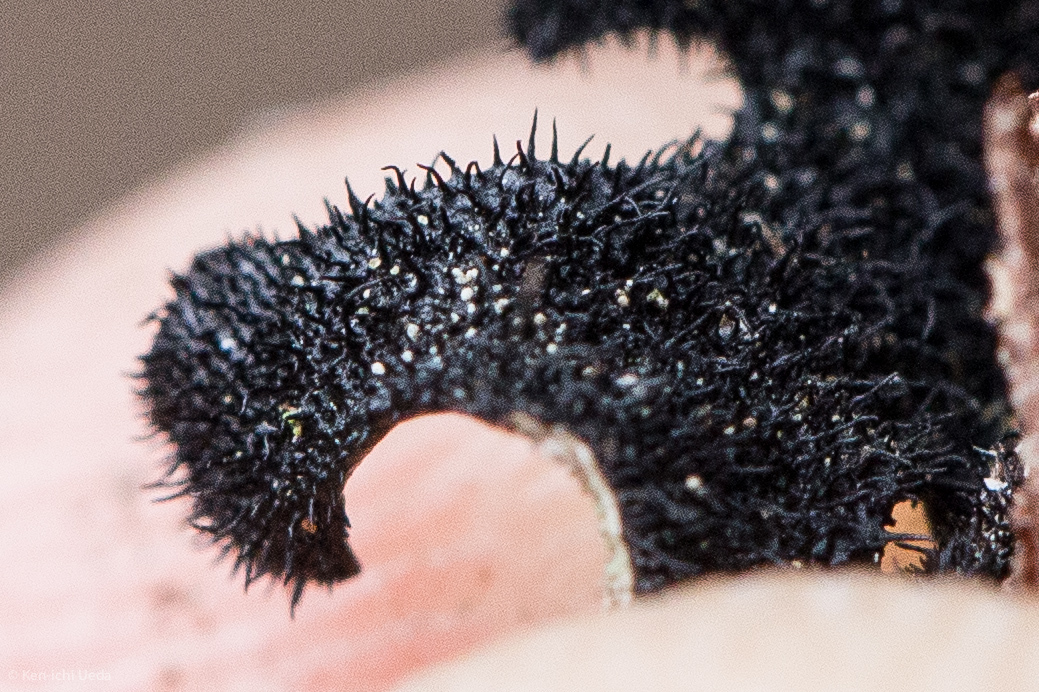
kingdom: Fungi
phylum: Ascomycota
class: Lecanoromycetes
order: Lecanorales
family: Parmeliaceae
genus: Parmelia
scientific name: Parmelia sulcata
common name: Netted shield lichen
